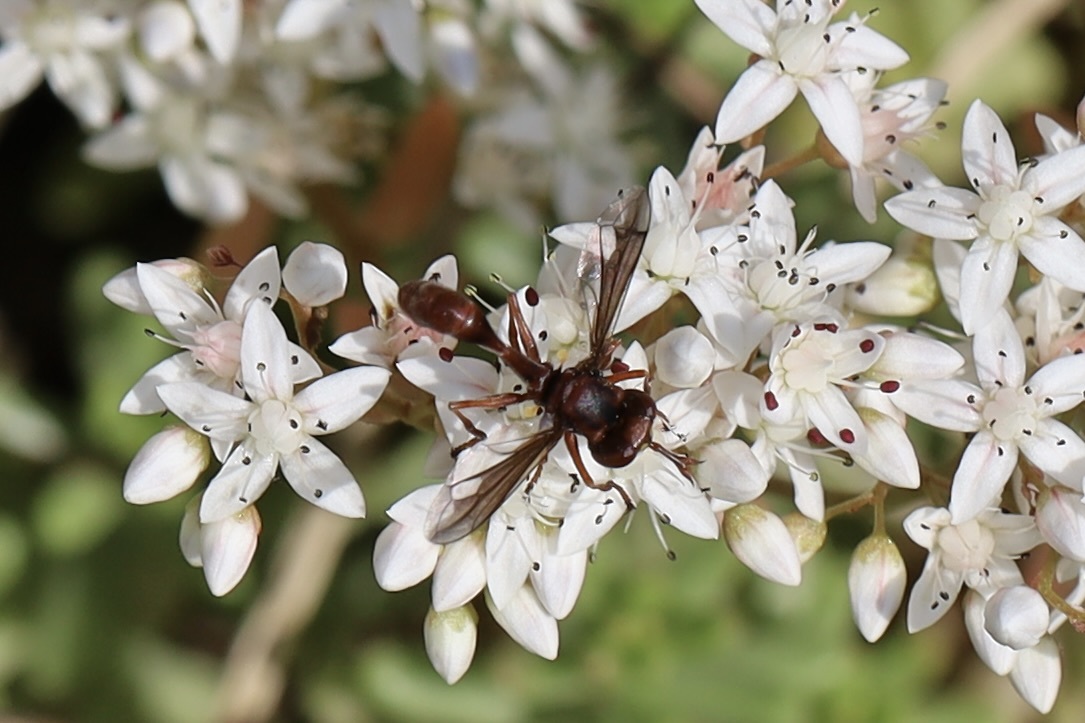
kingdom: Animalia
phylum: Arthropoda
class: Insecta
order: Diptera
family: Conopidae
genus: Physocephala
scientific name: Physocephala burgessi
